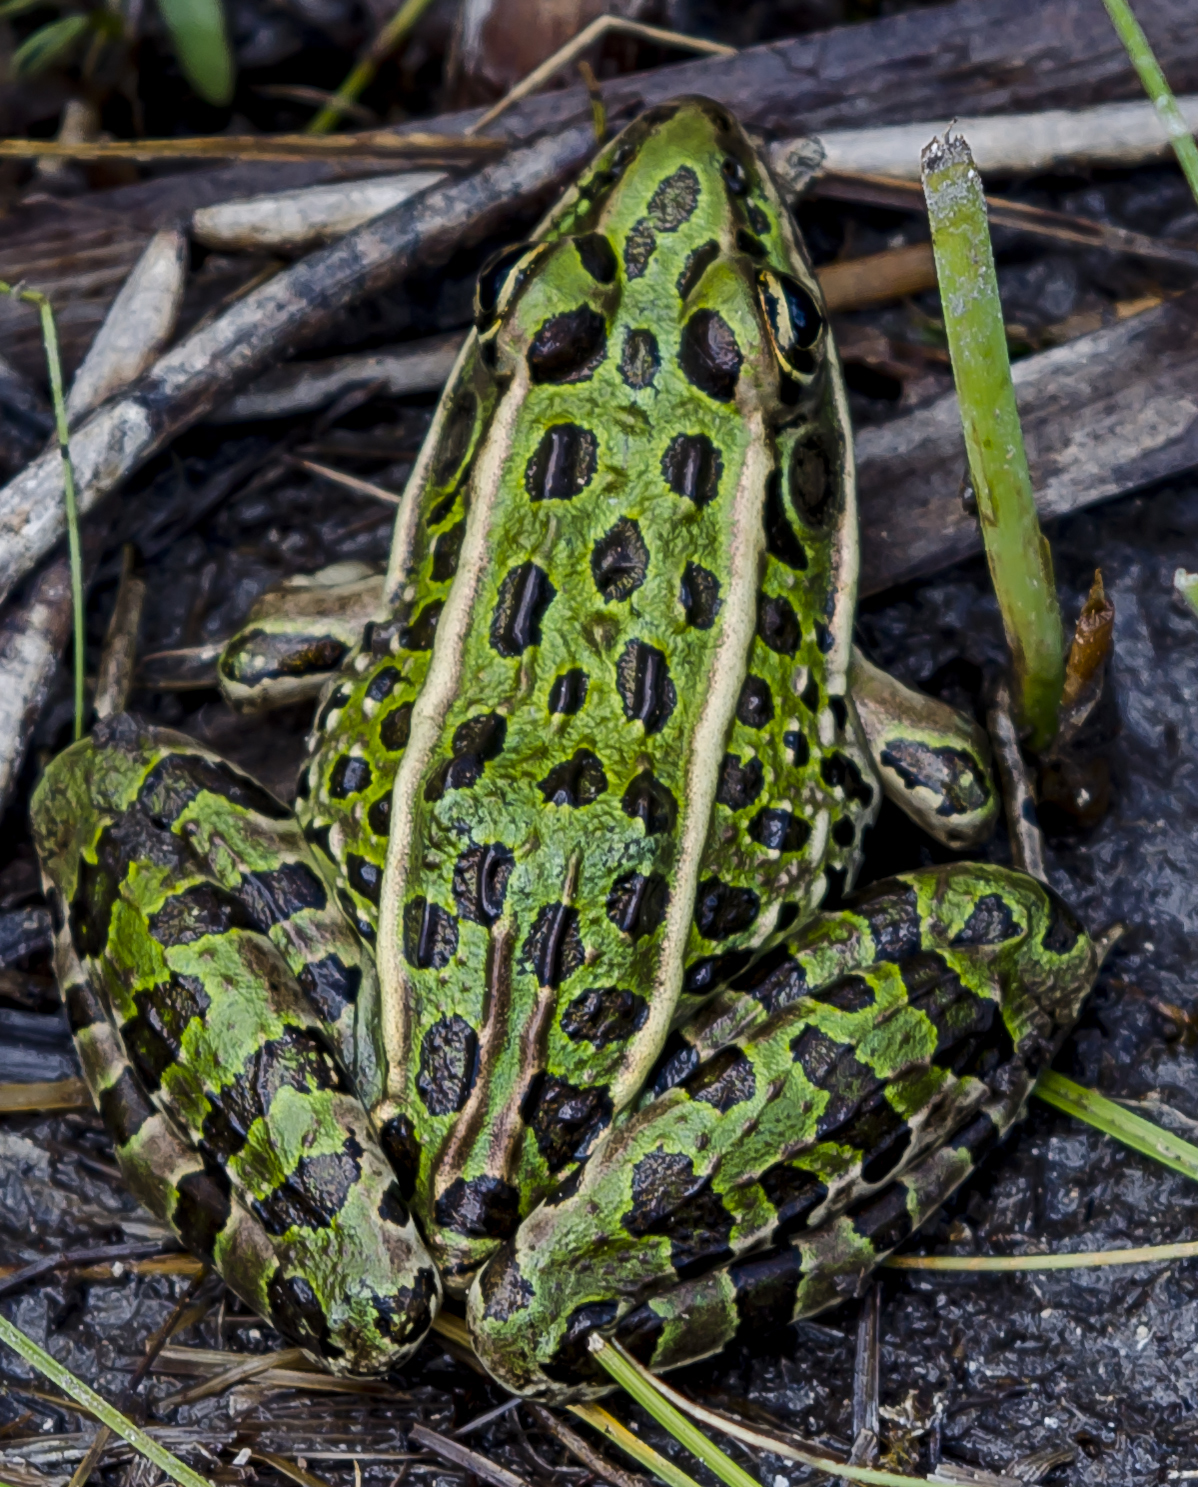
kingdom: Animalia
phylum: Chordata
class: Amphibia
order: Anura
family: Ranidae
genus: Lithobates
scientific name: Lithobates pipiens
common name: Northern leopard frog
